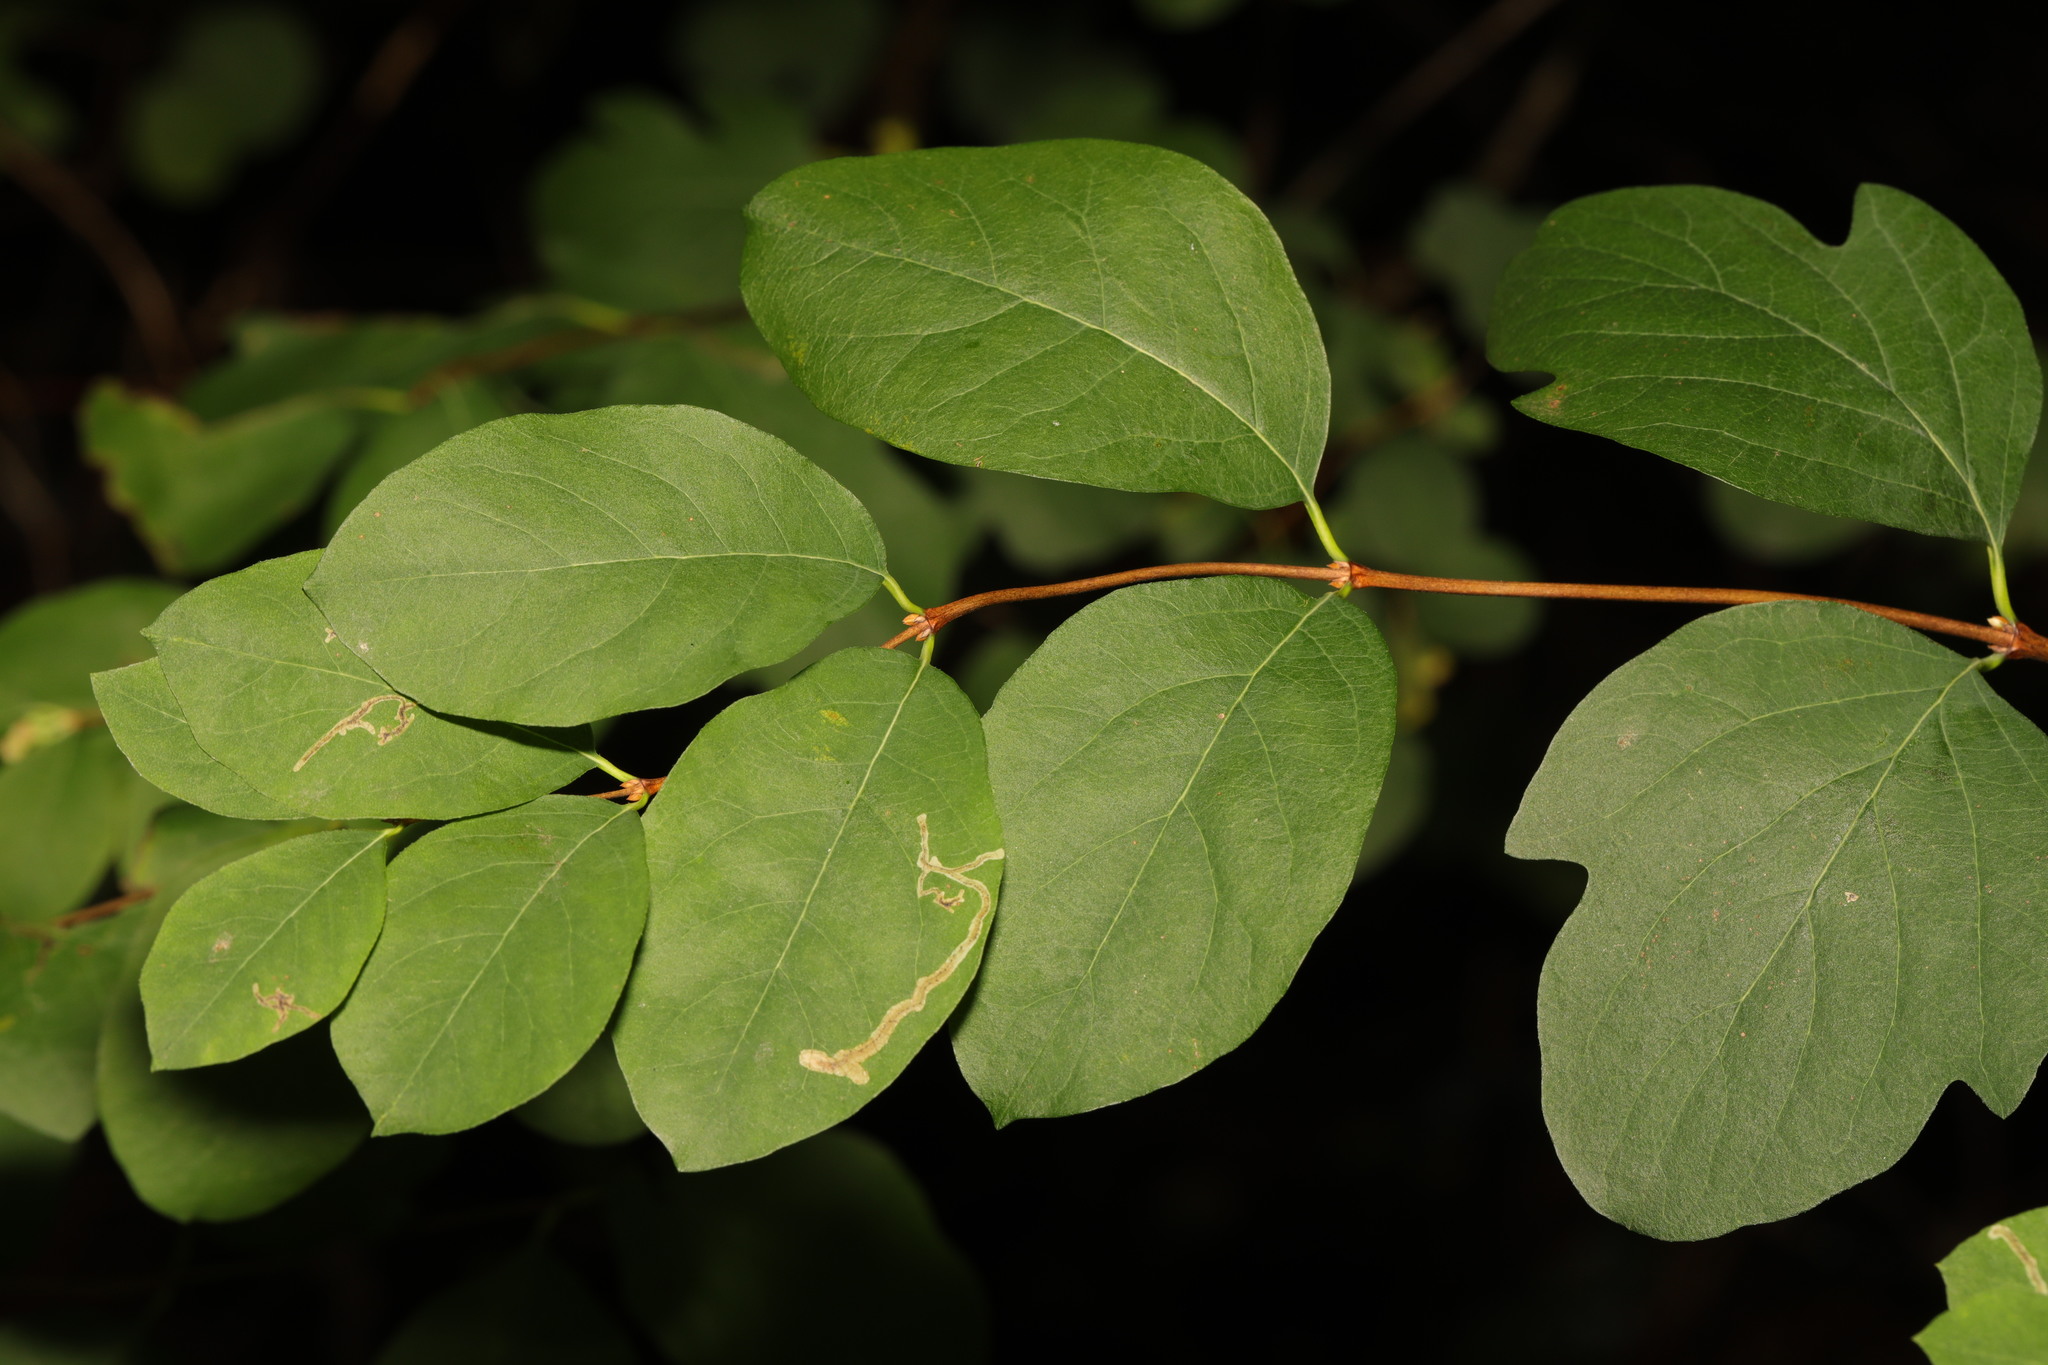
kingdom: Plantae
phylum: Tracheophyta
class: Magnoliopsida
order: Dipsacales
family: Caprifoliaceae
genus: Symphoricarpos
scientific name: Symphoricarpos albus
